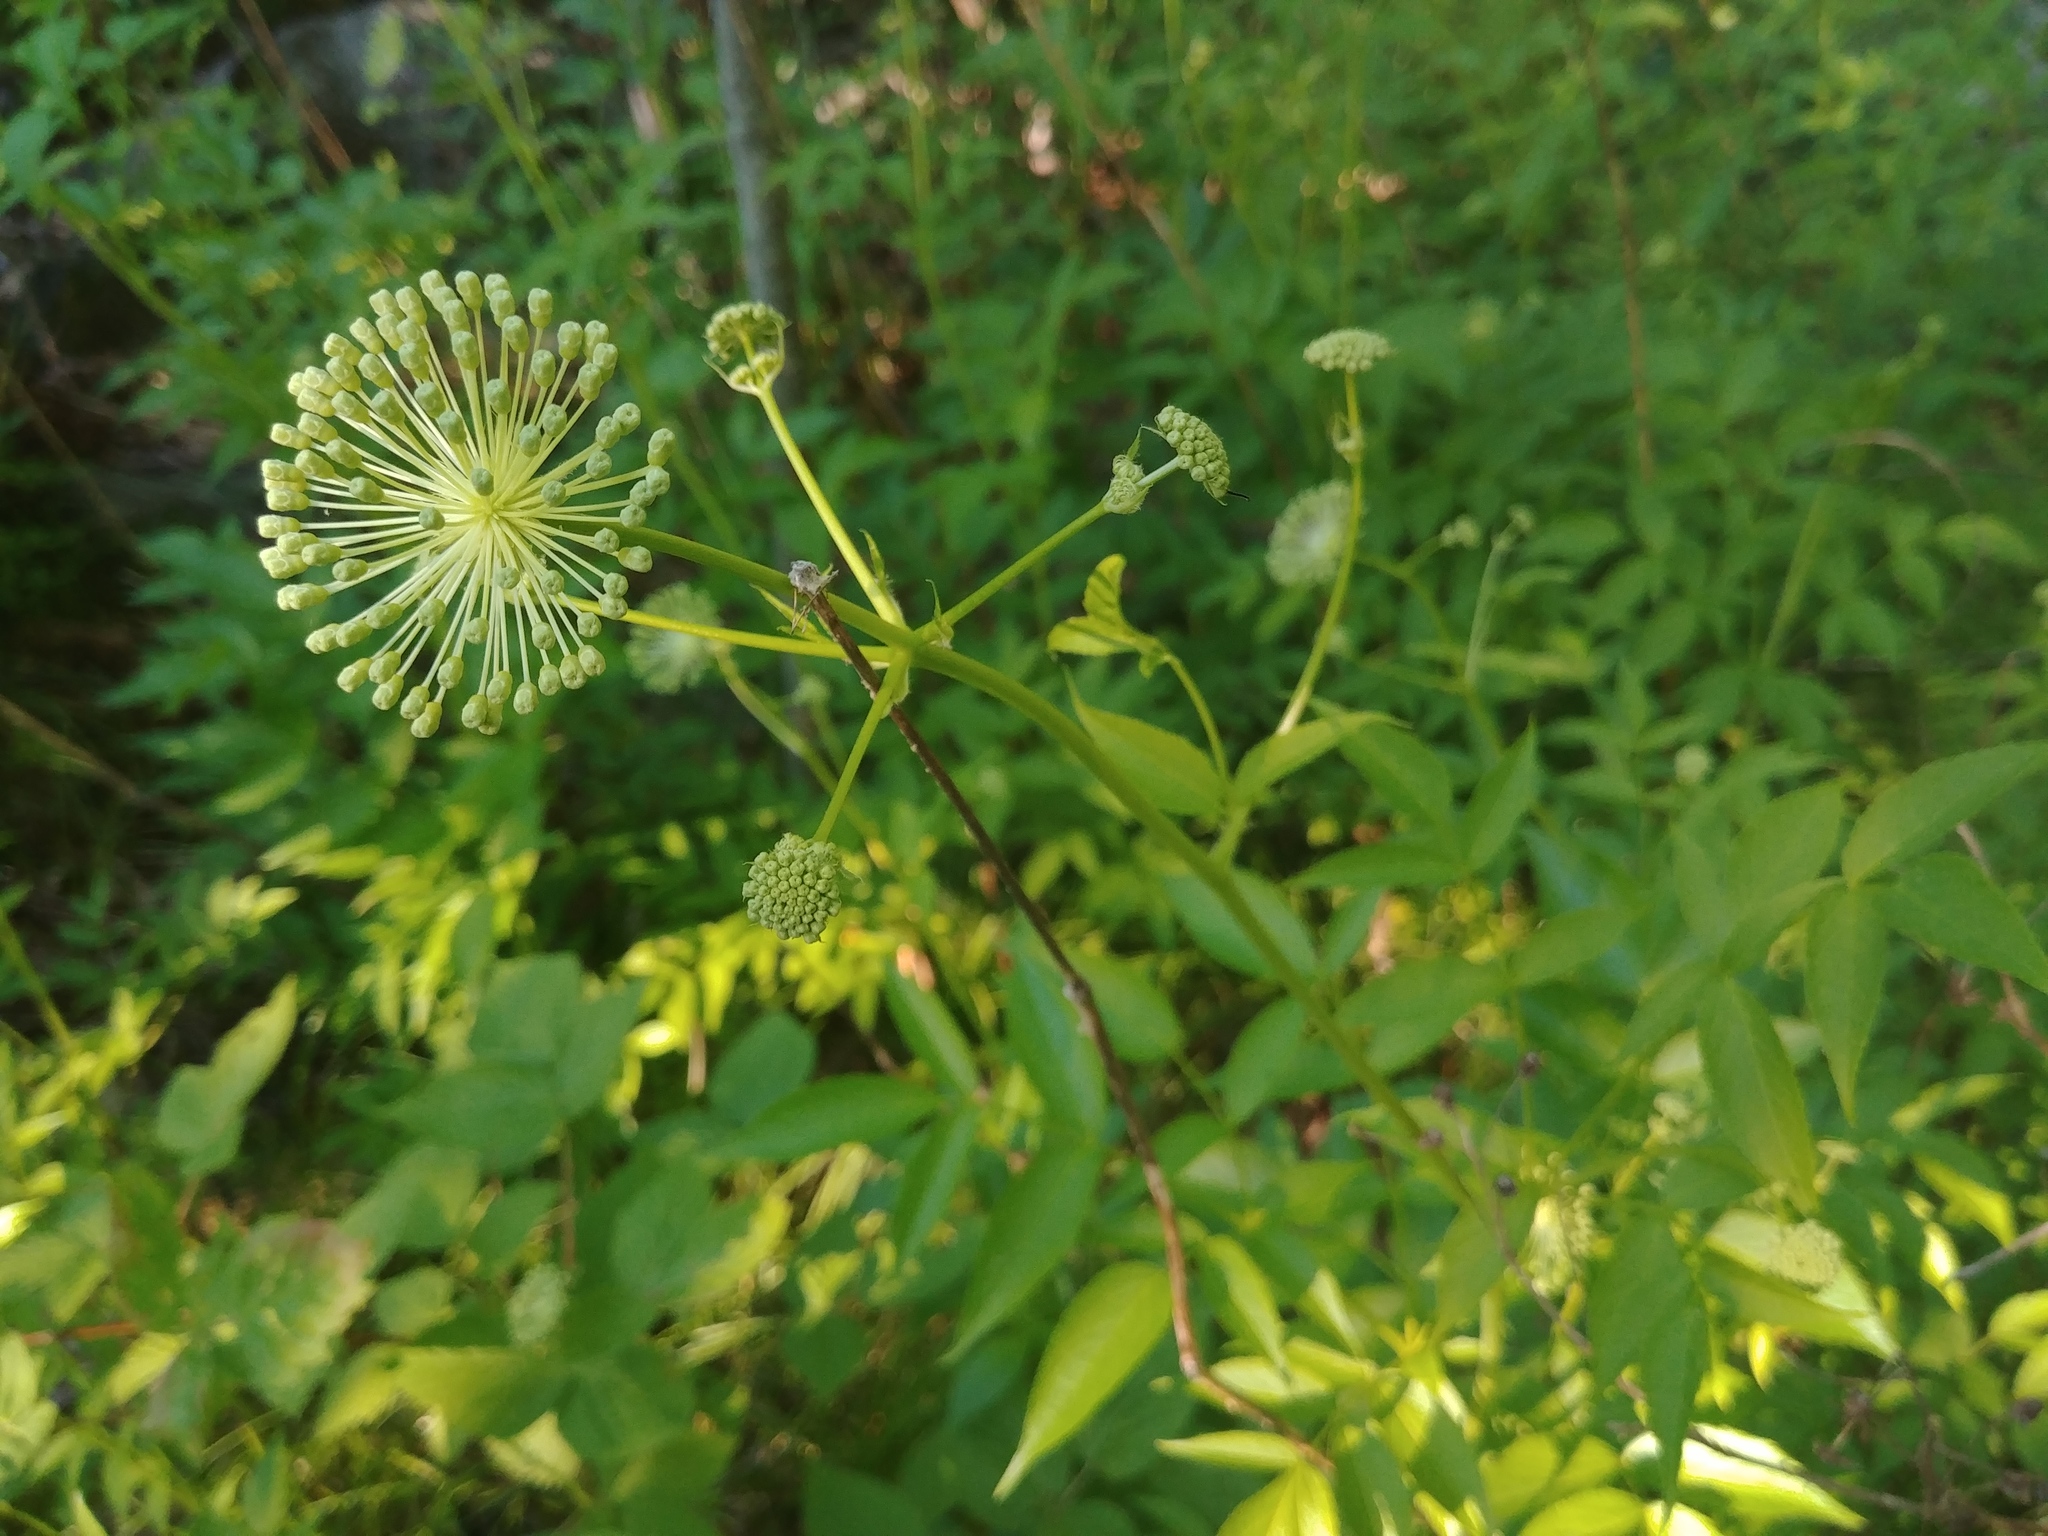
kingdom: Plantae
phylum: Tracheophyta
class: Magnoliopsida
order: Apiales
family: Araliaceae
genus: Aralia
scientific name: Aralia hispida
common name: Bristly sarsaparilla
